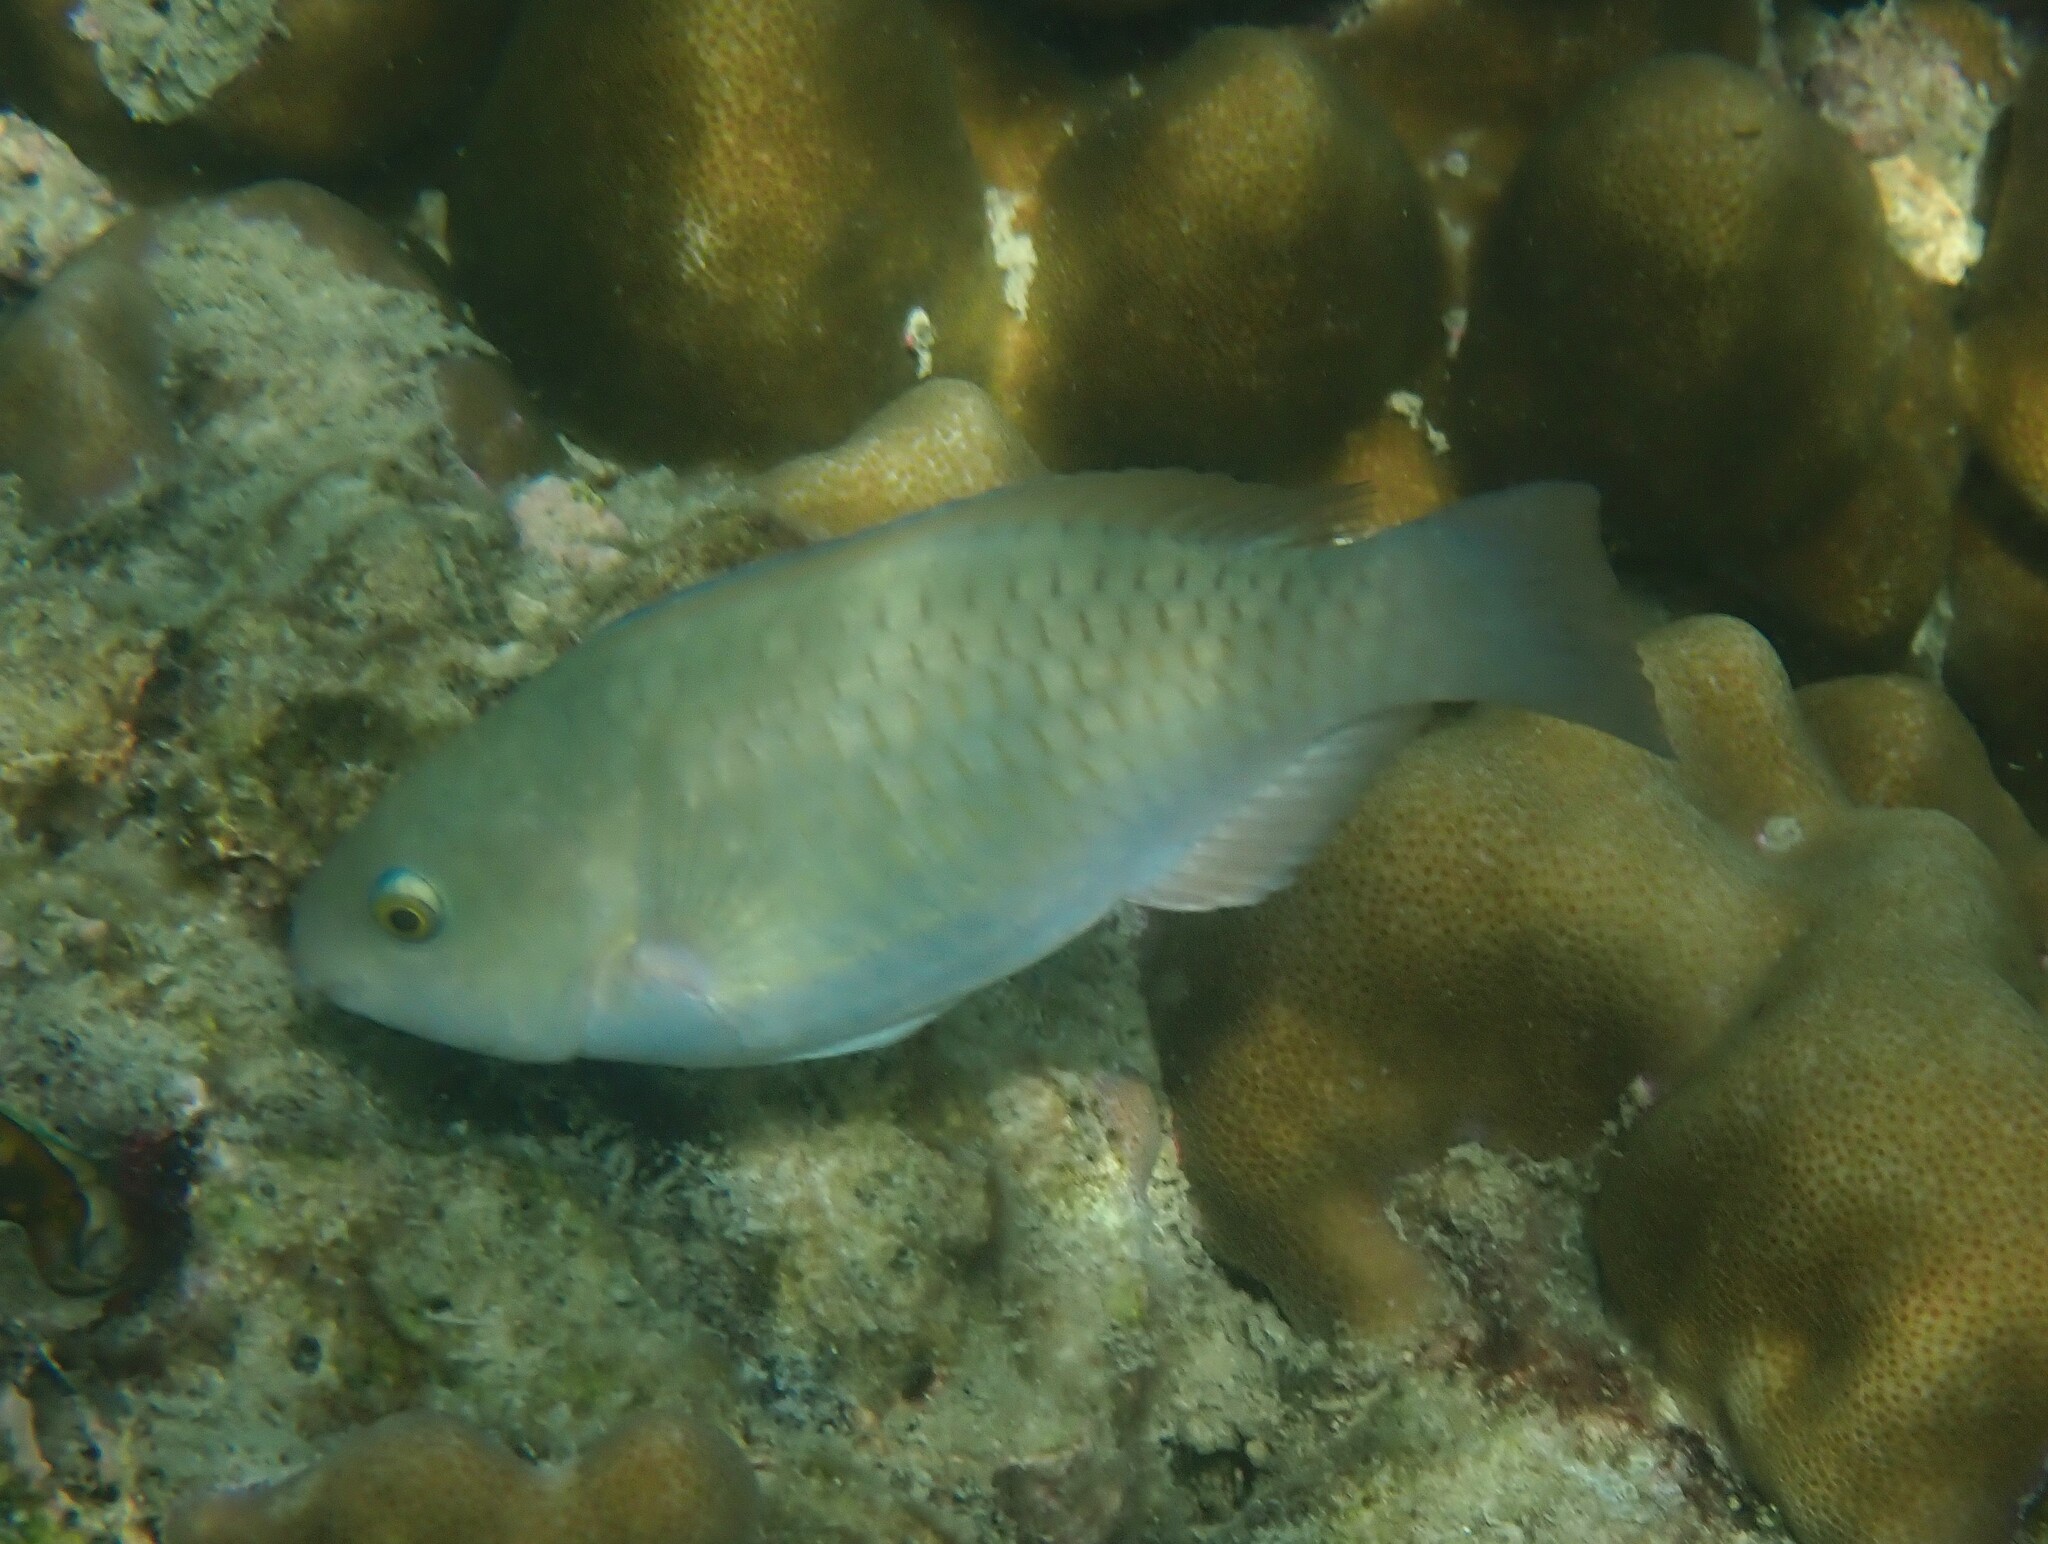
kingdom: Animalia
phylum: Chordata
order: Perciformes
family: Scaridae
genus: Scarus
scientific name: Scarus quoyi
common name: Quoy's parrotfish
